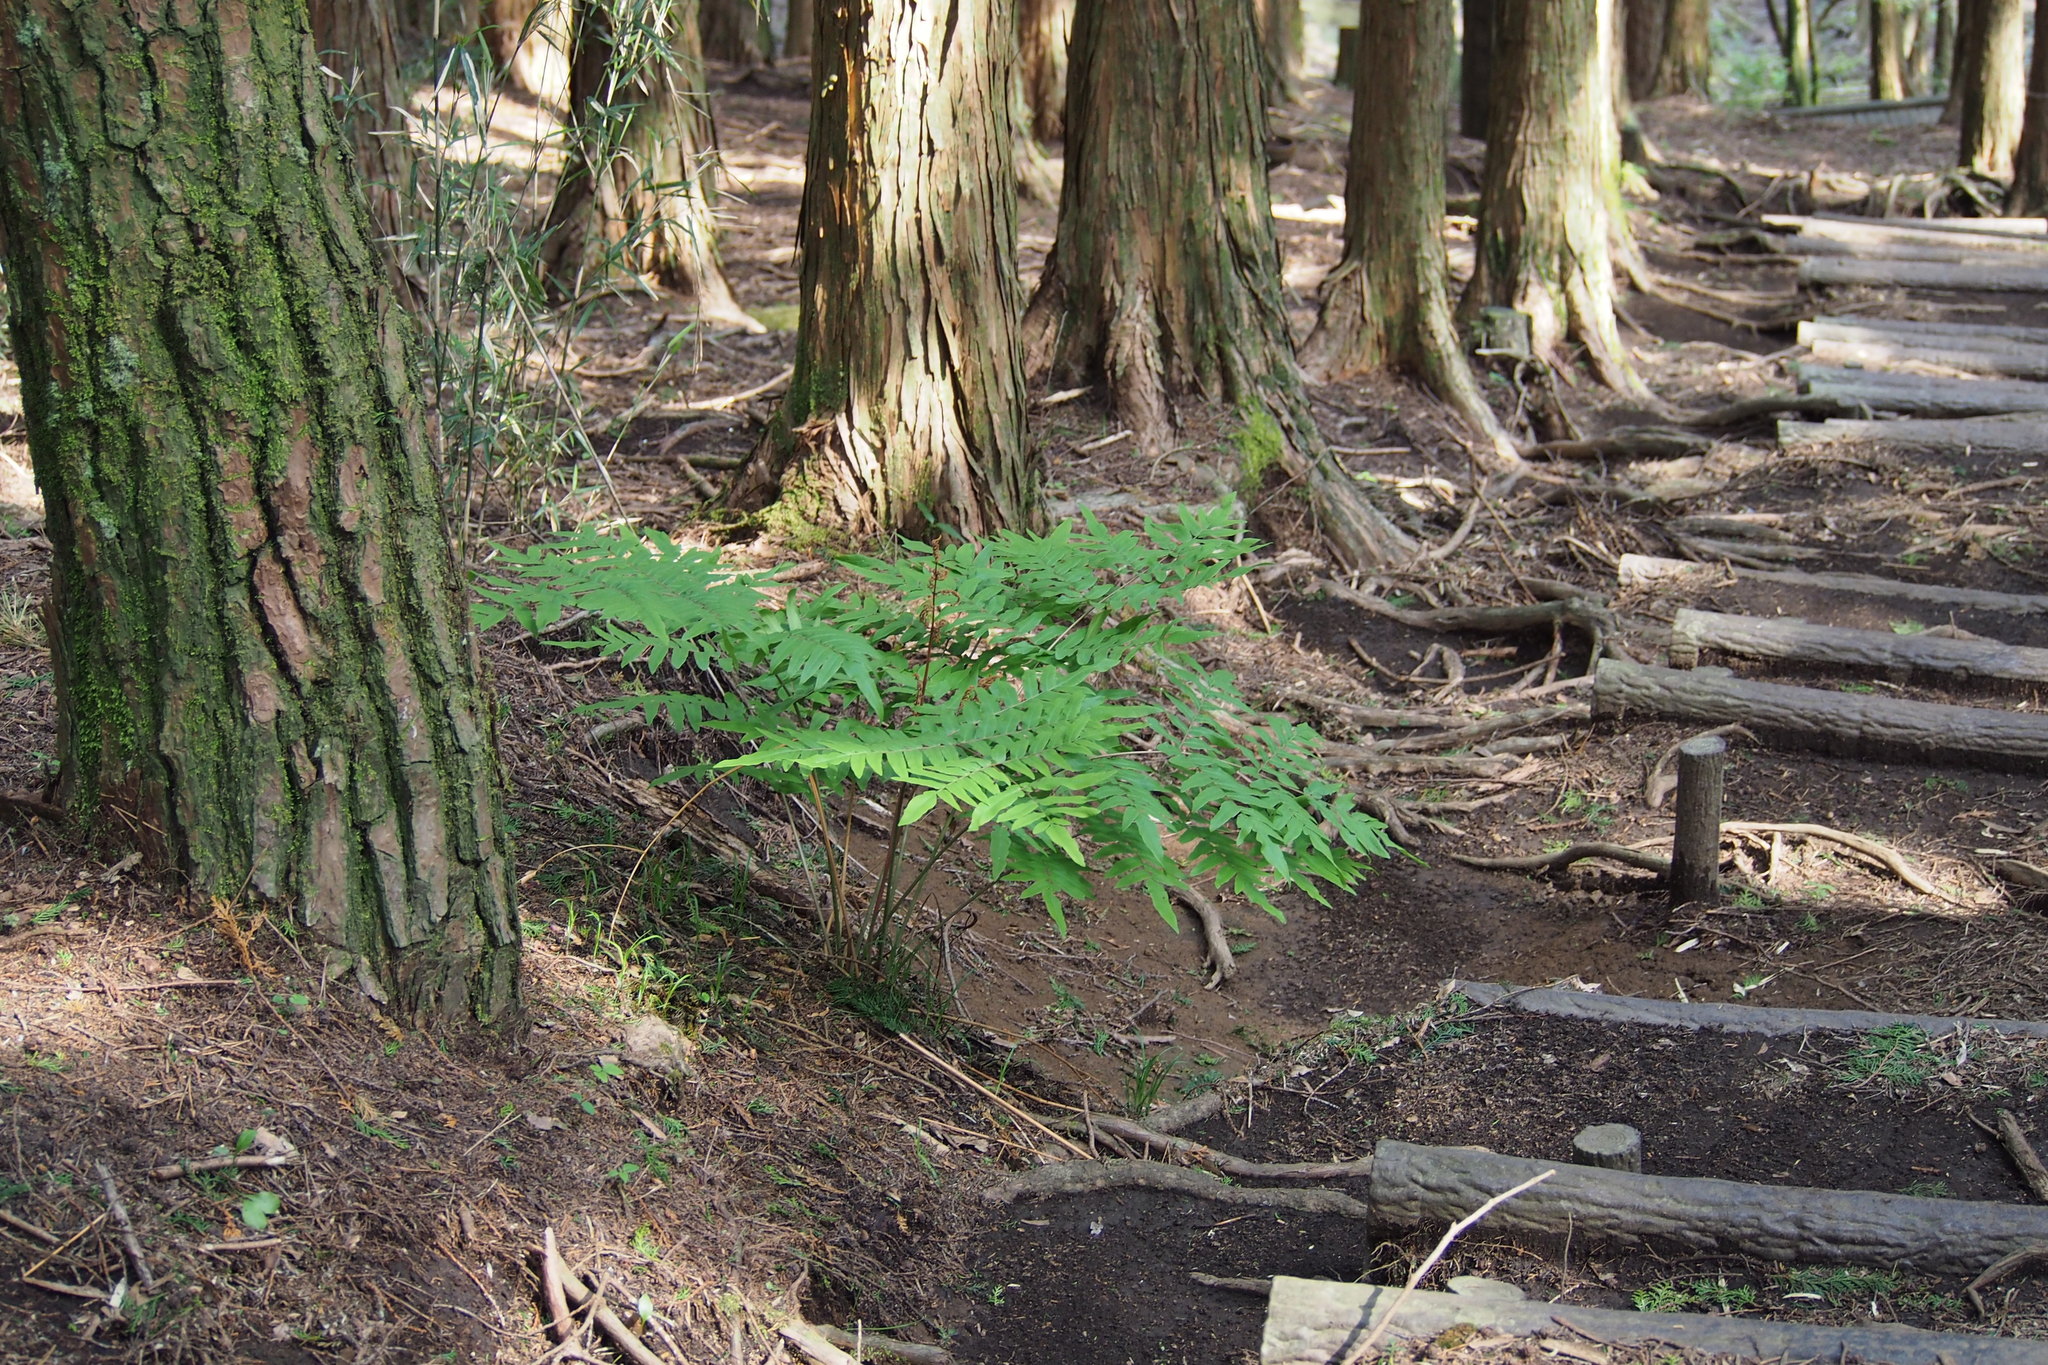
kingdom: Plantae
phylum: Tracheophyta
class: Polypodiopsida
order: Osmundales
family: Osmundaceae
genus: Osmunda
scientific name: Osmunda japonica
